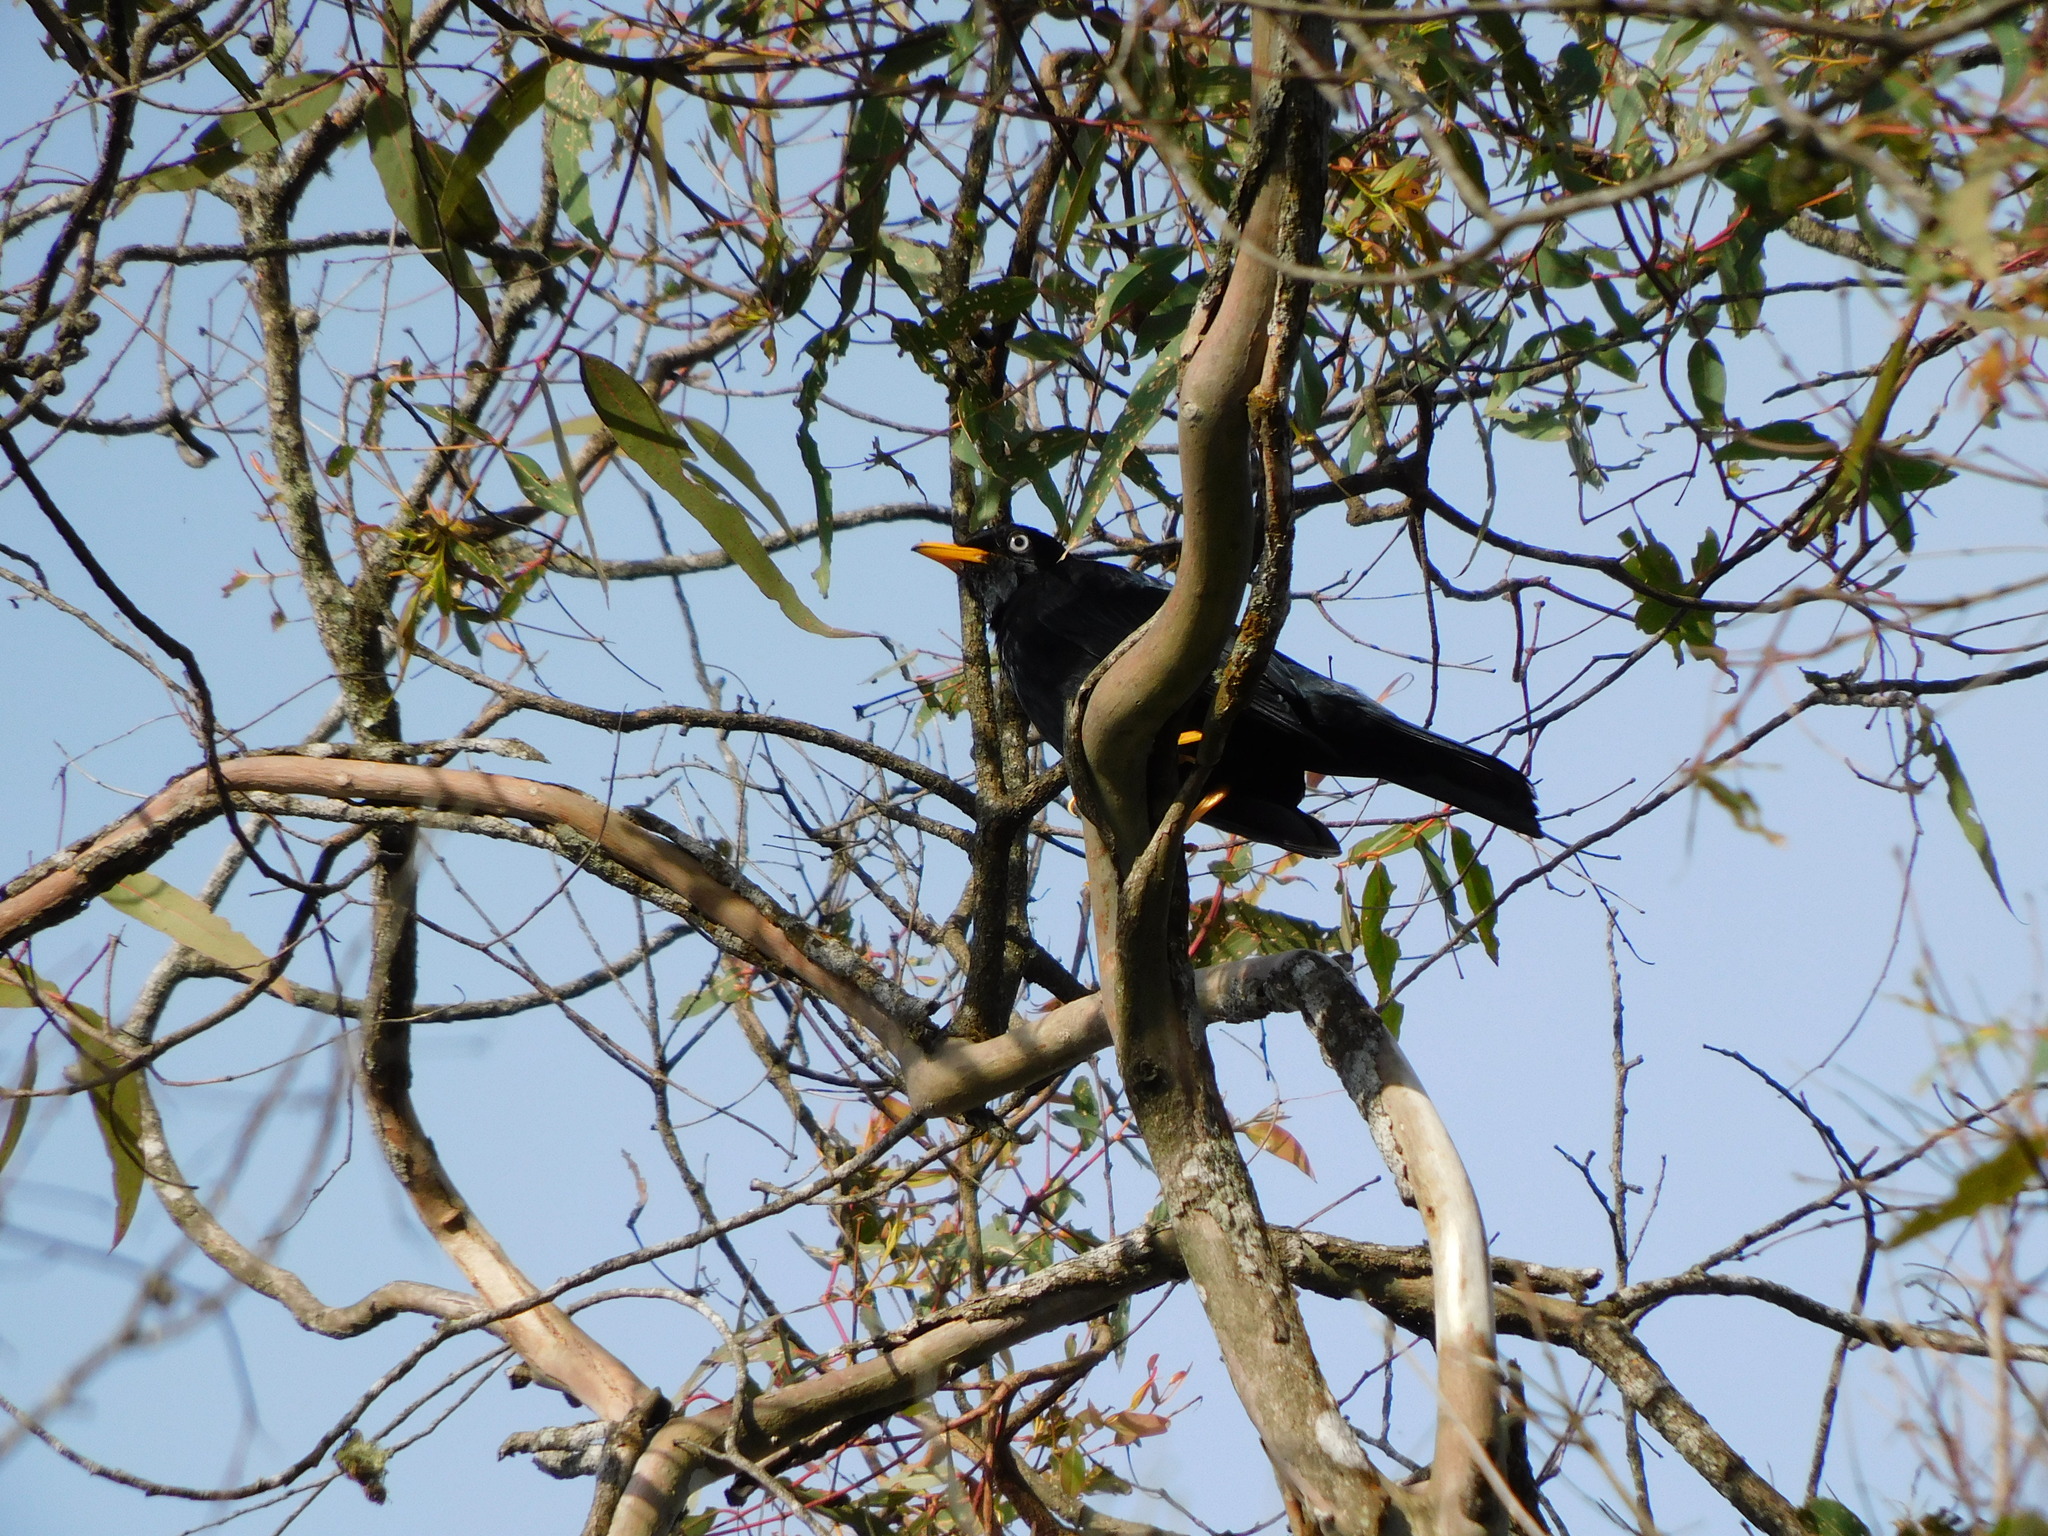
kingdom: Animalia
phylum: Chordata
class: Aves
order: Passeriformes
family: Turdidae
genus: Turdus
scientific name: Turdus leucops
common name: Pale-eyed thrush
